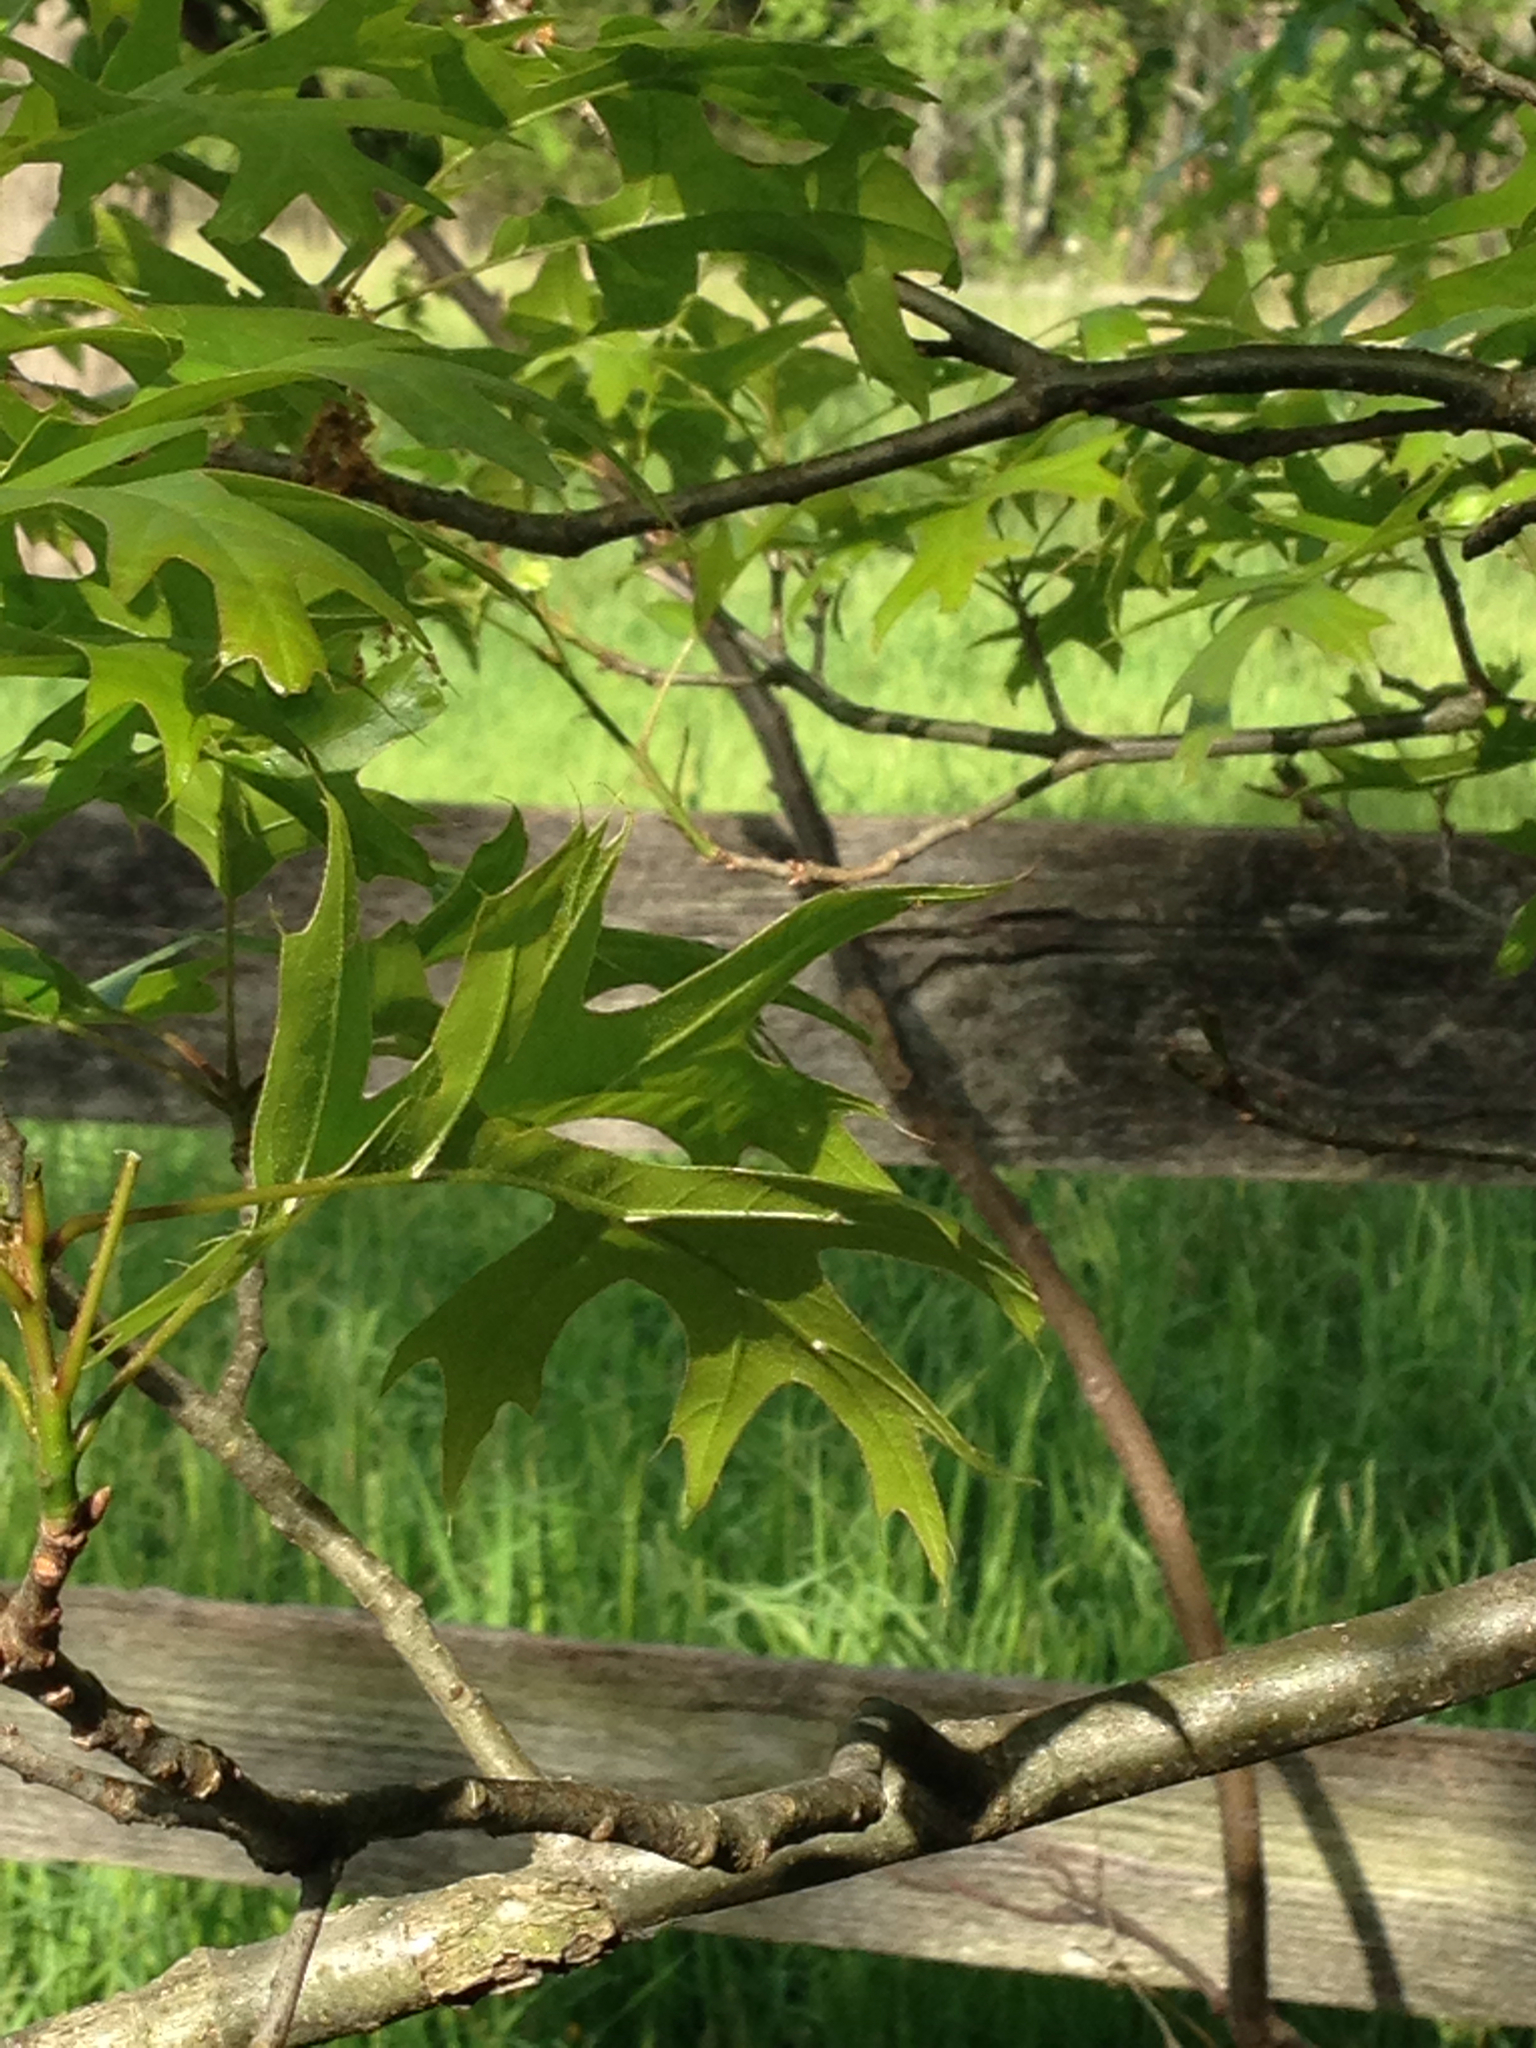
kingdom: Plantae
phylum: Tracheophyta
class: Magnoliopsida
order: Fagales
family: Fagaceae
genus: Quercus
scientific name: Quercus palustris
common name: Pin oak
